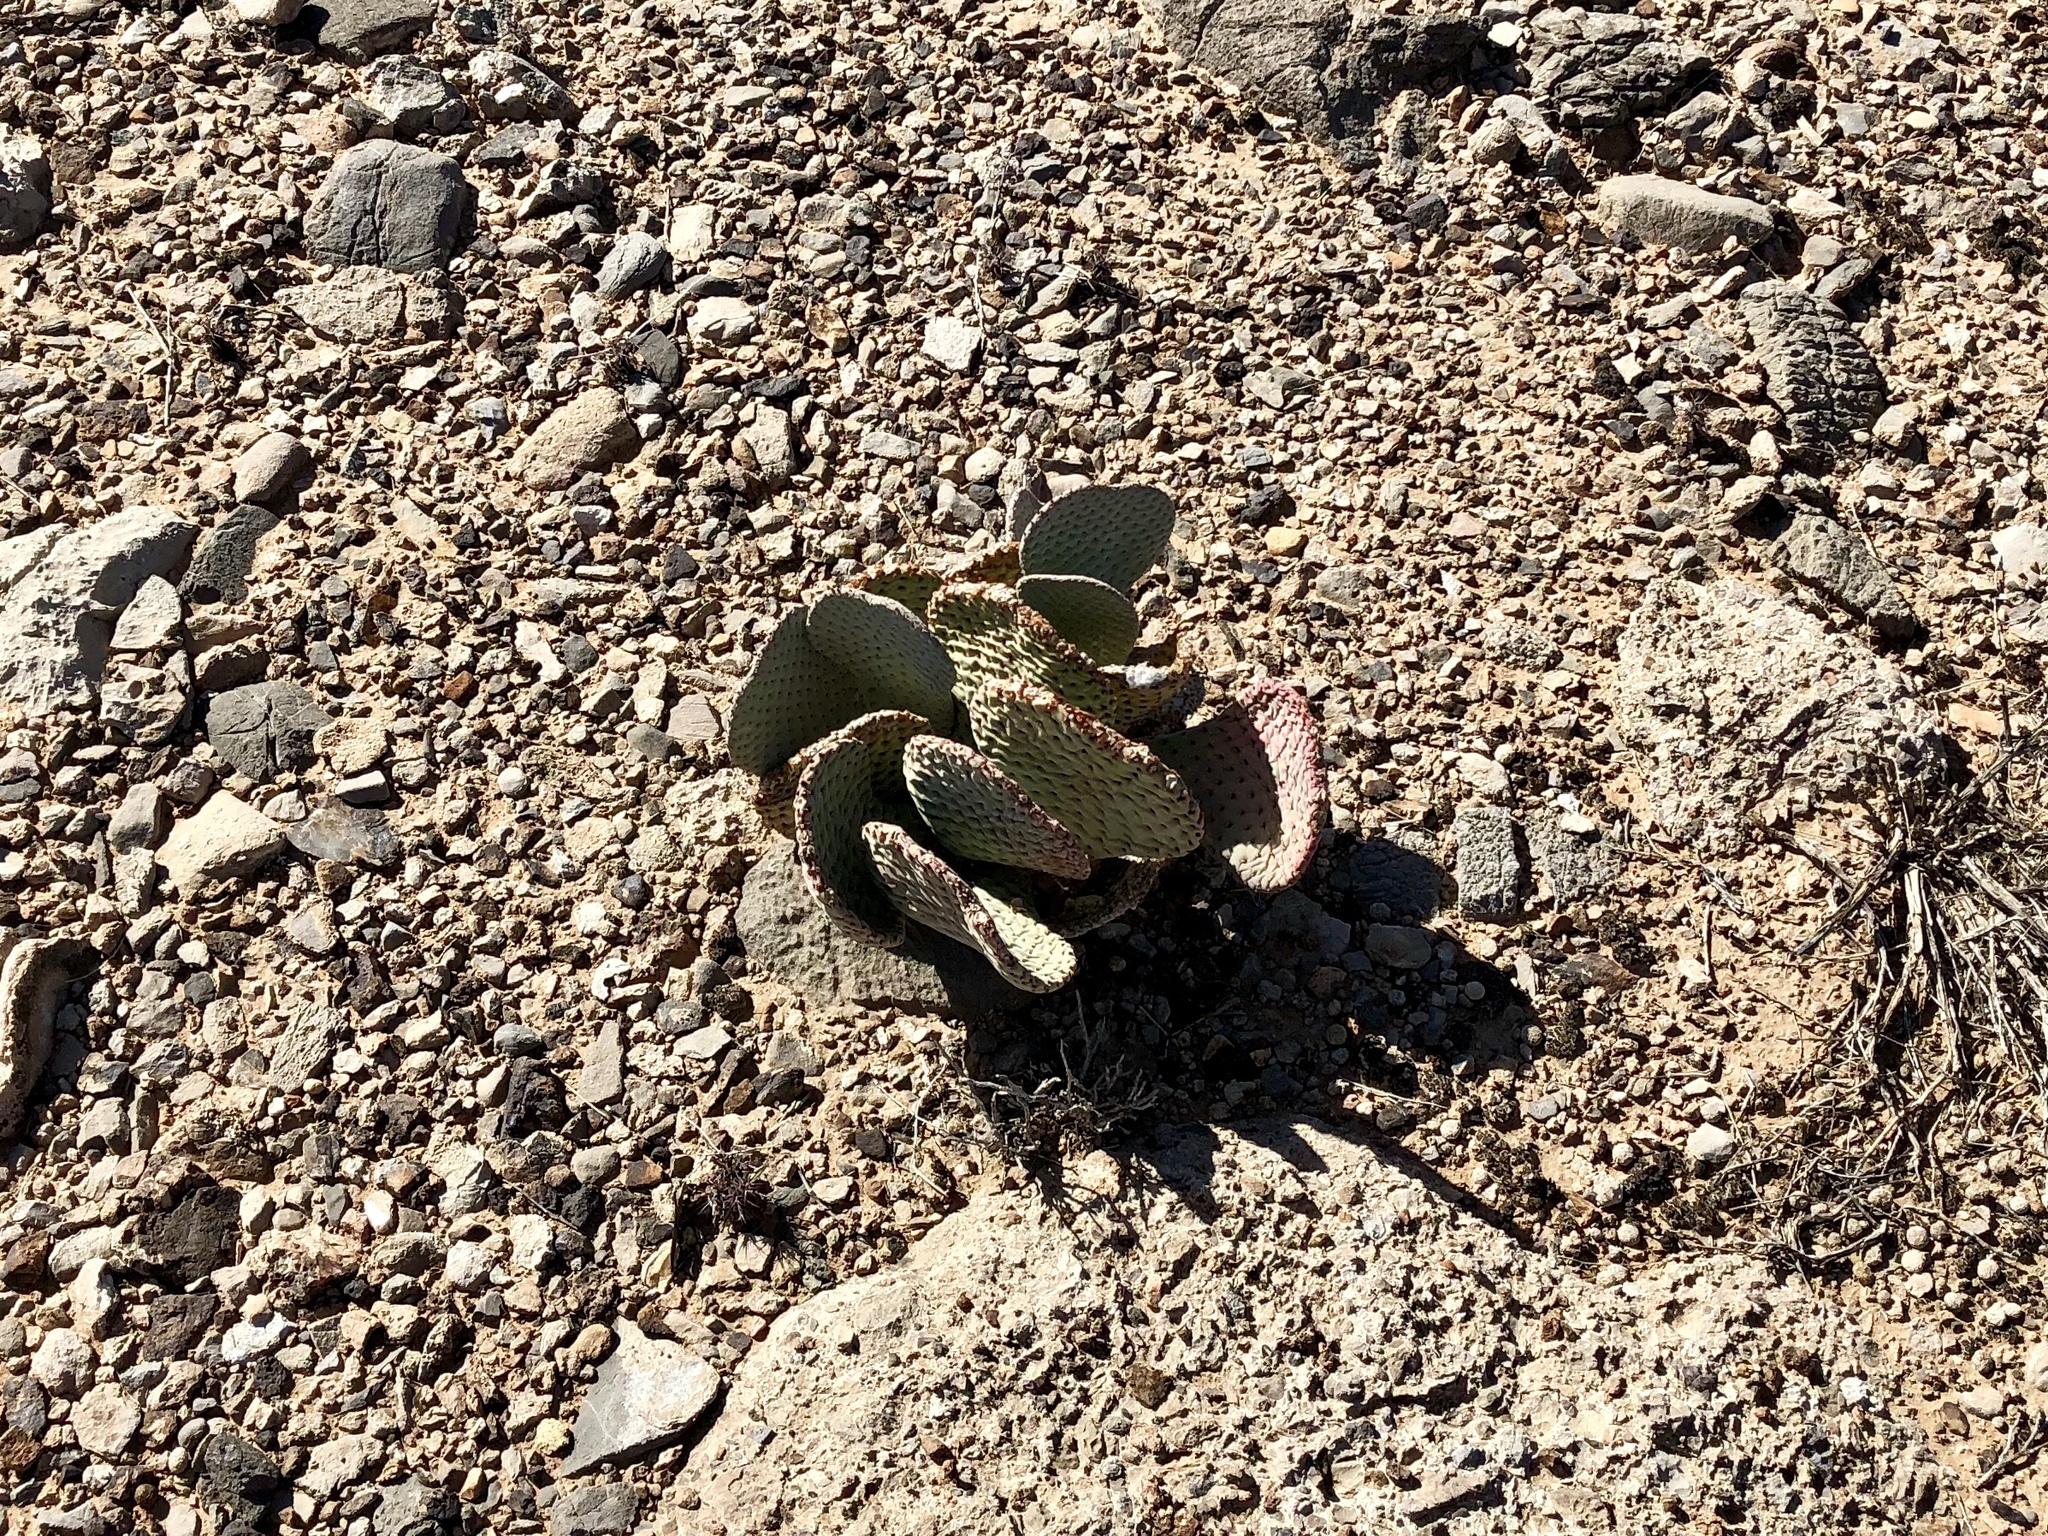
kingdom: Plantae
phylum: Tracheophyta
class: Magnoliopsida
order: Caryophyllales
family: Cactaceae
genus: Opuntia
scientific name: Opuntia basilaris
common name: Beavertail prickly-pear
